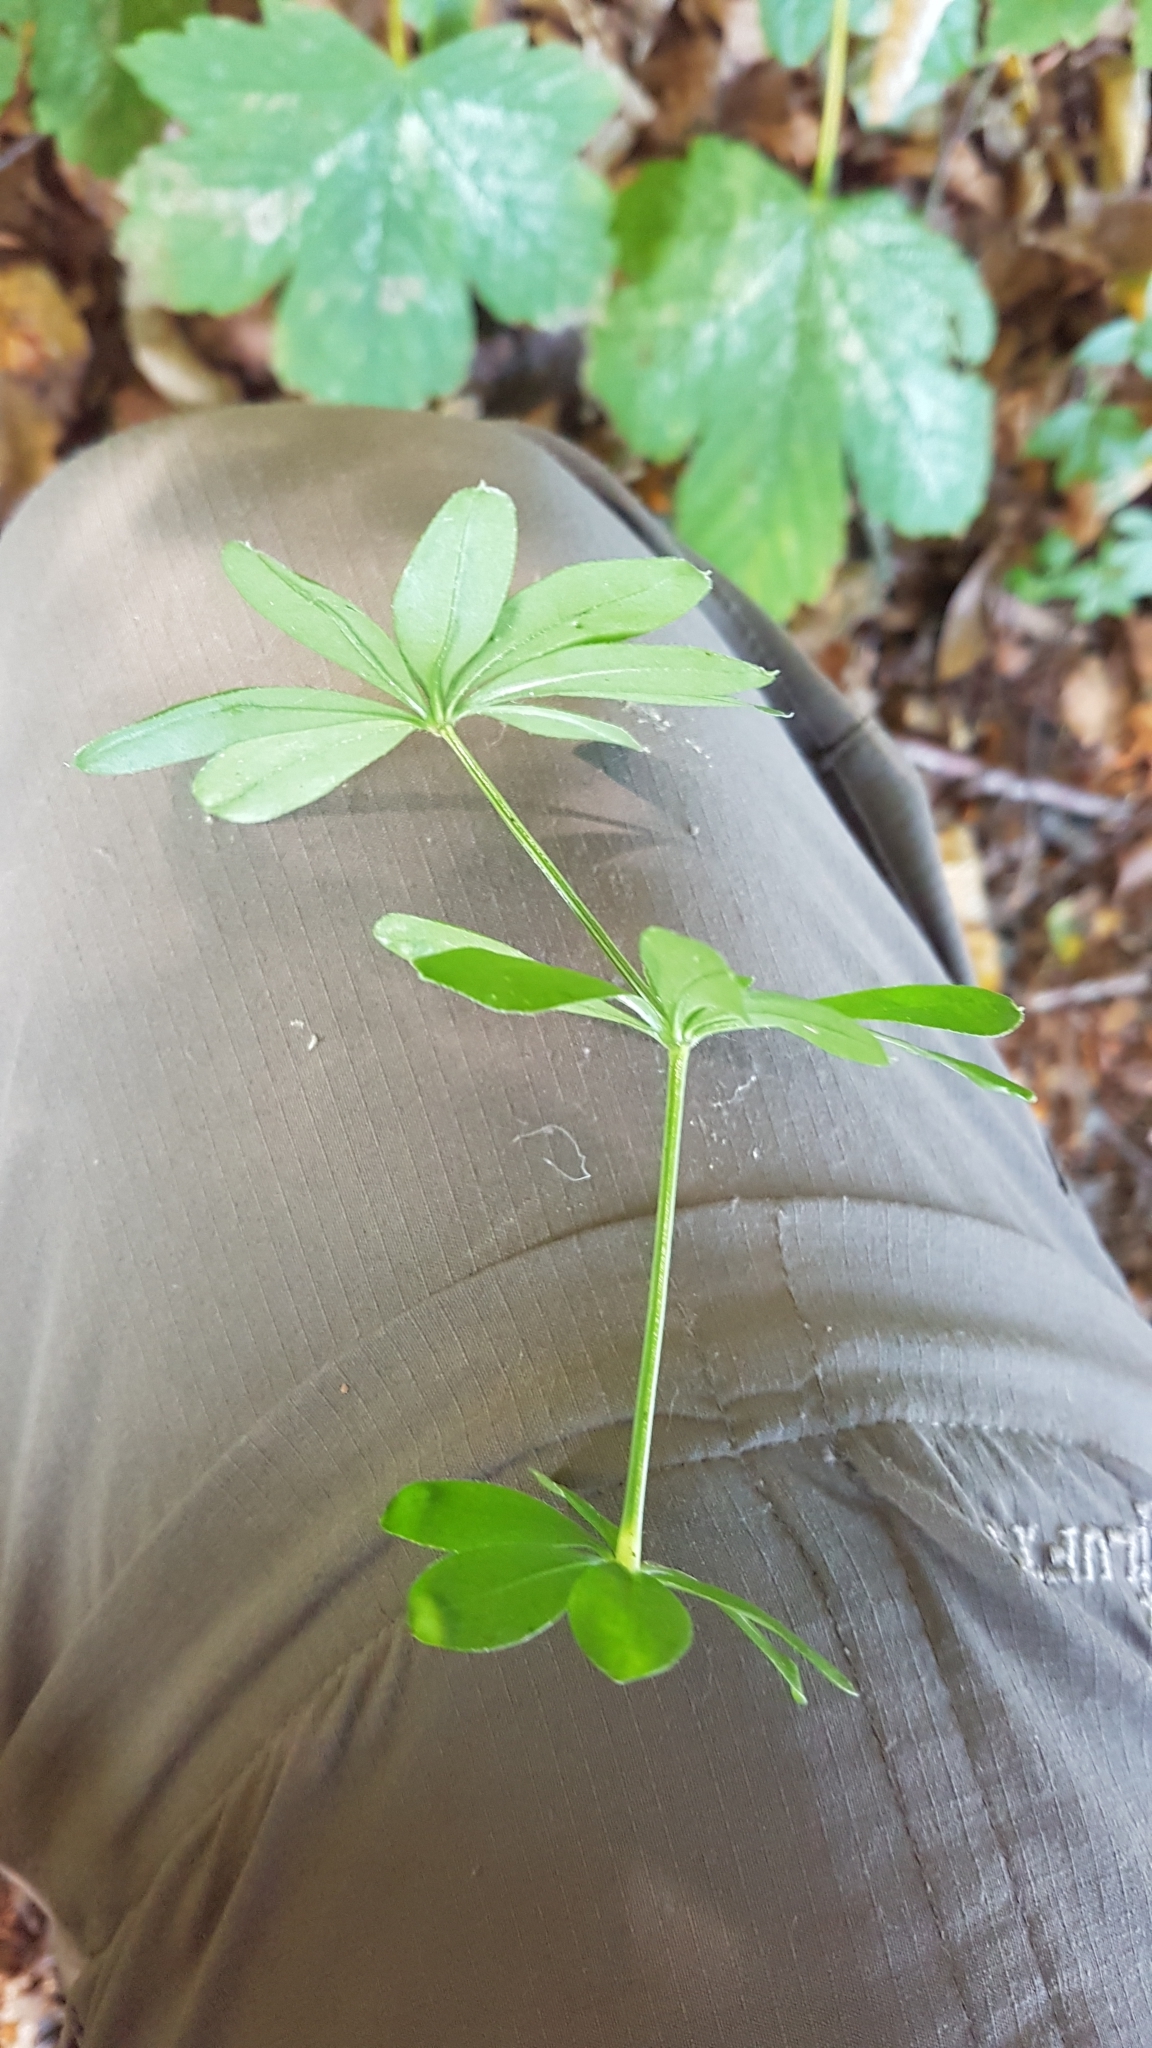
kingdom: Plantae
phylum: Tracheophyta
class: Magnoliopsida
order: Gentianales
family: Rubiaceae
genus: Galium
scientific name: Galium odoratum
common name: Sweet woodruff
